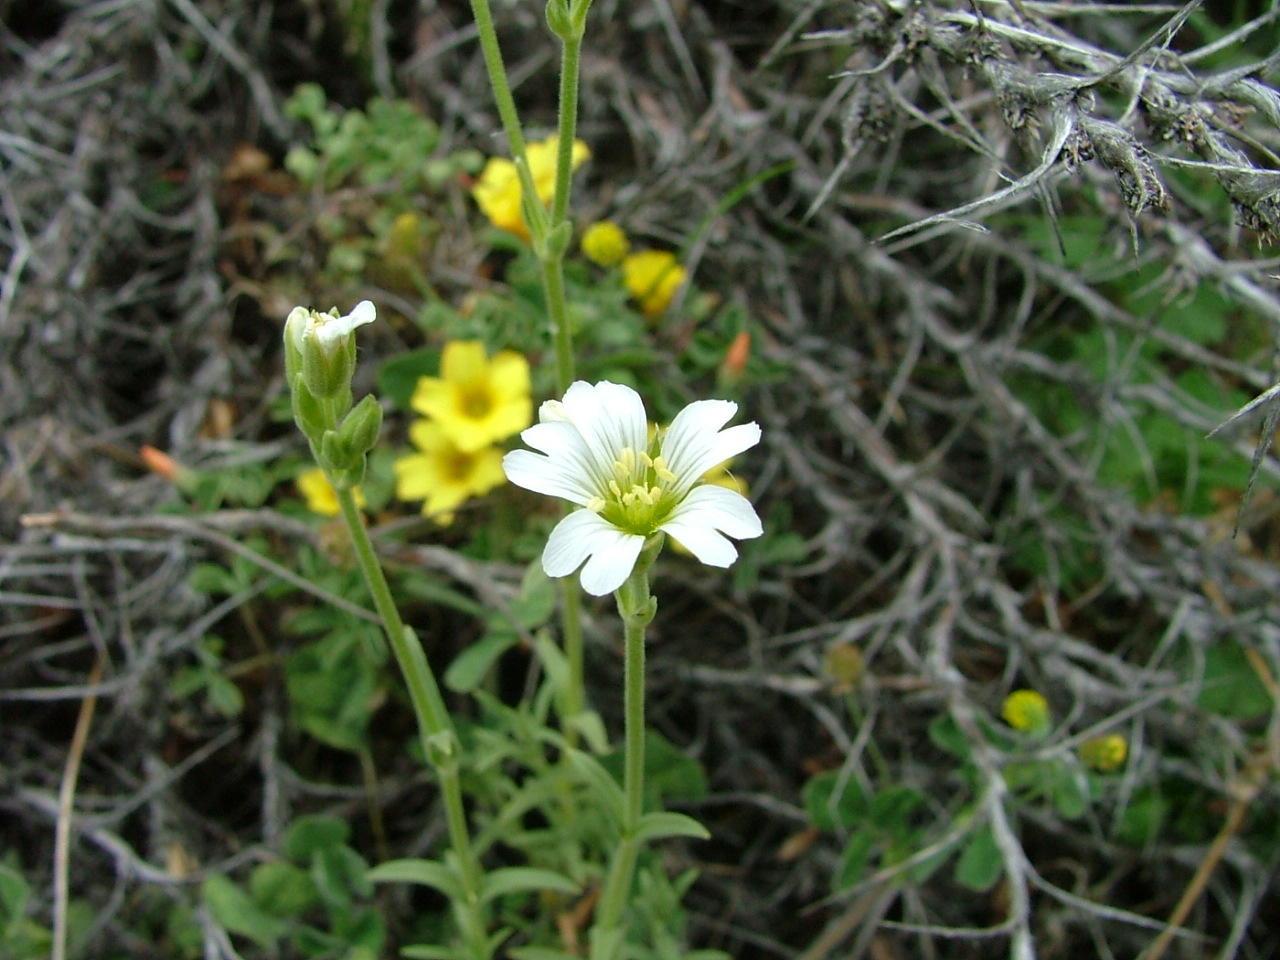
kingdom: Plantae
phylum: Tracheophyta
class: Magnoliopsida
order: Caryophyllales
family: Caryophyllaceae
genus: Cerastium
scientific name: Cerastium arvense
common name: Field mouse-ear
